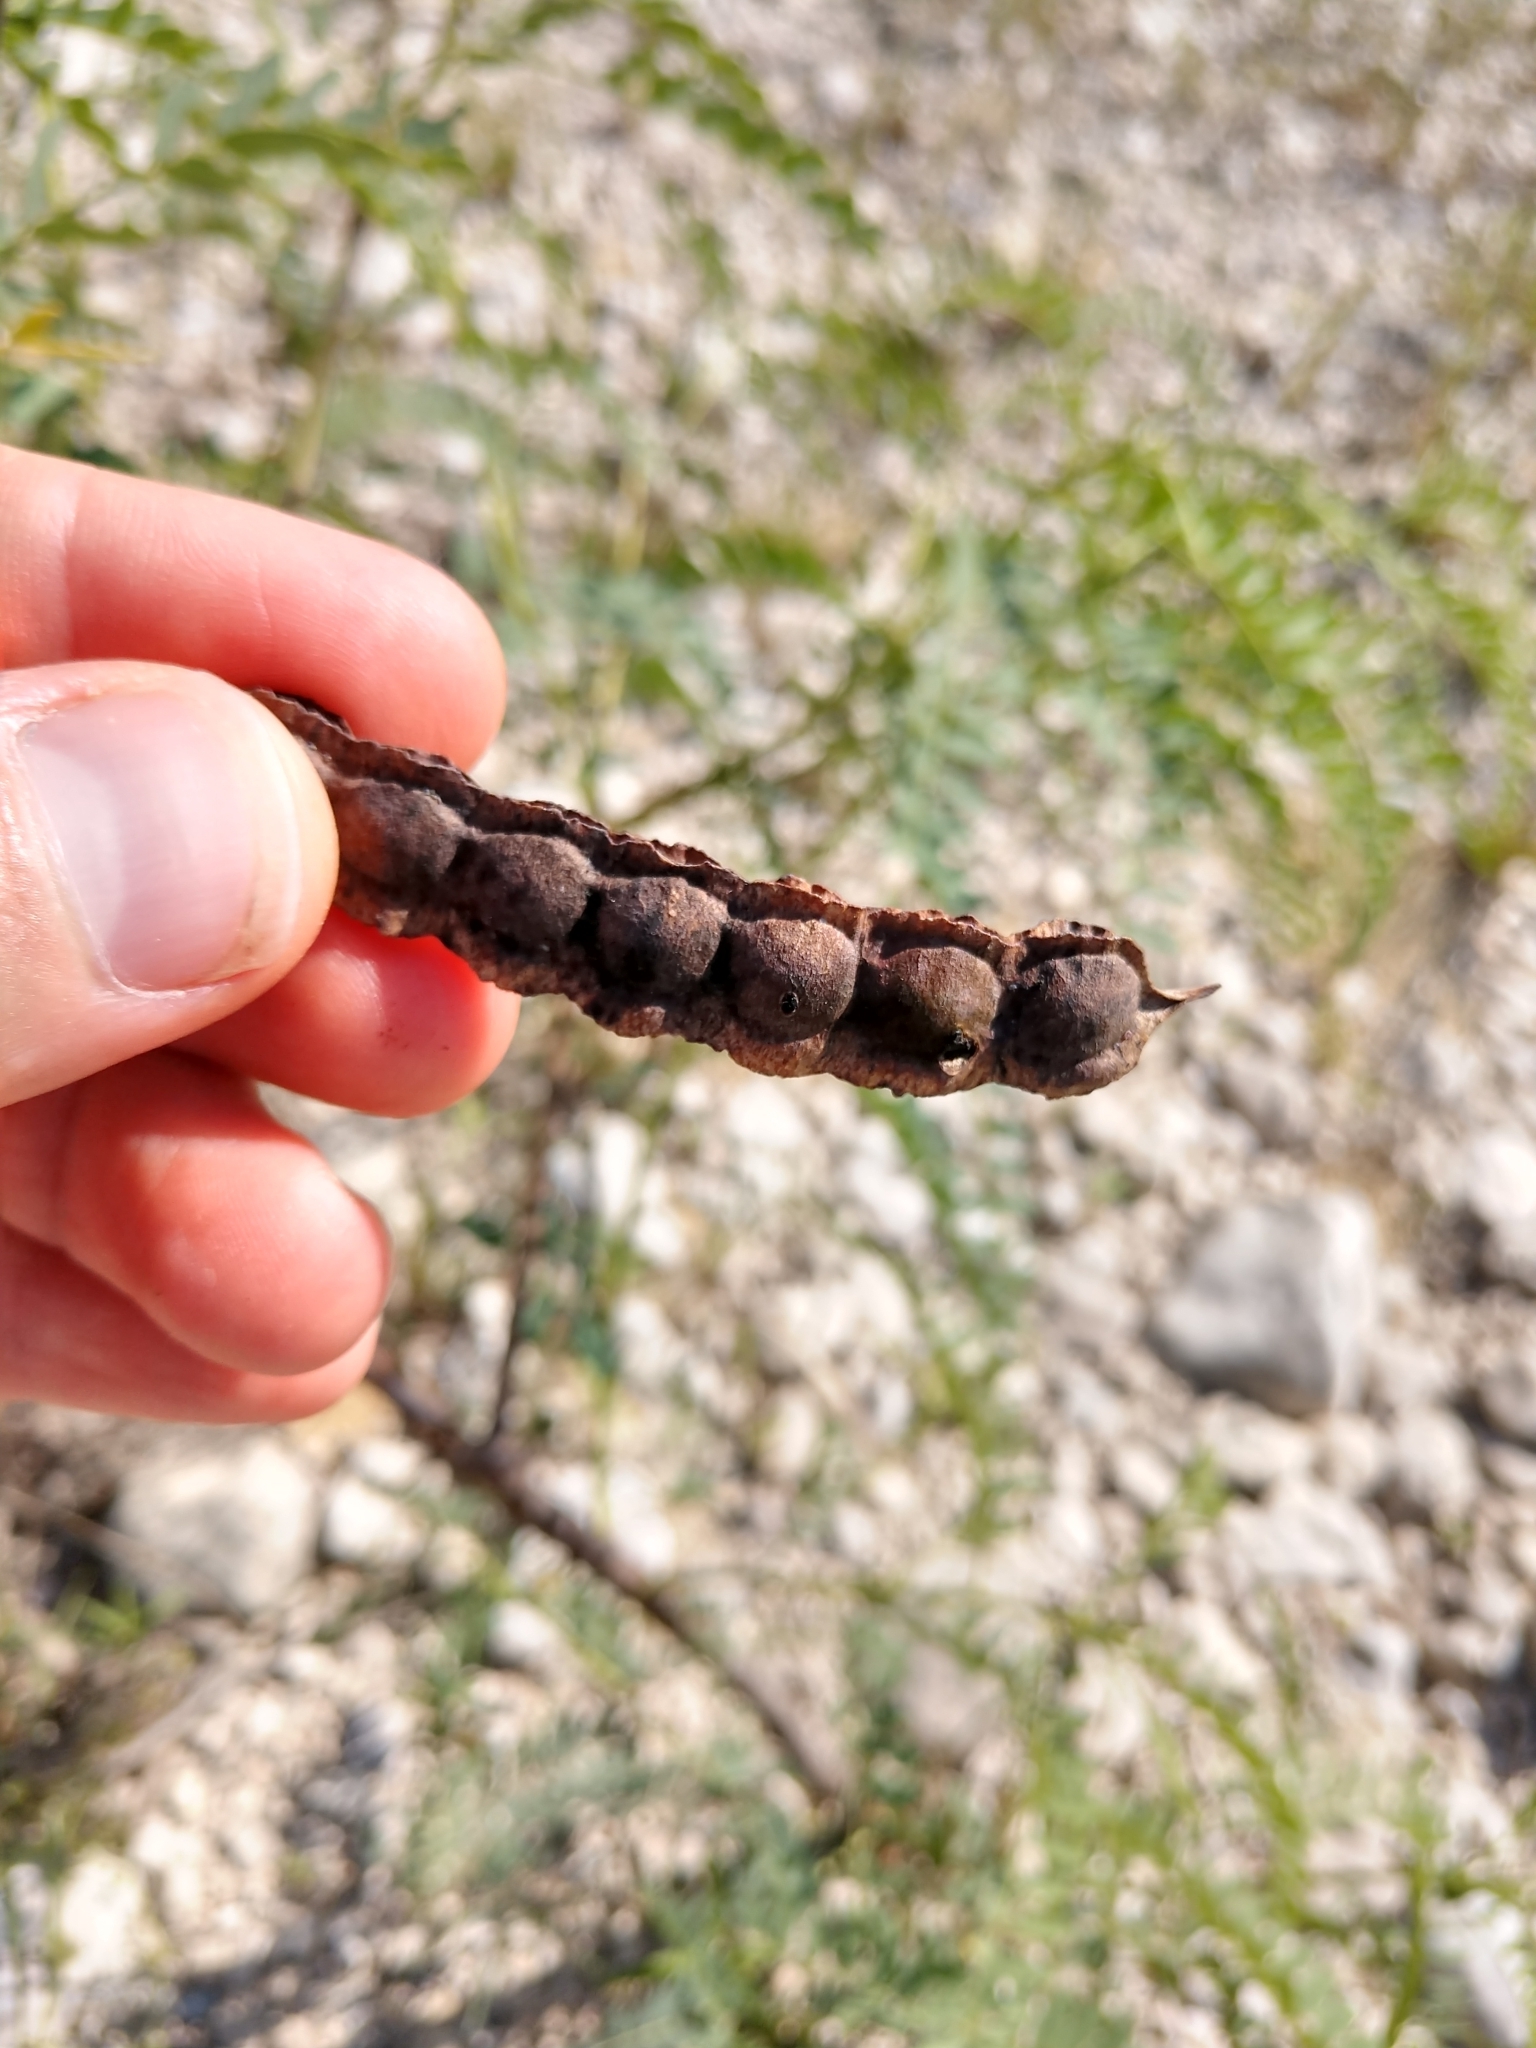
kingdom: Plantae
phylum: Tracheophyta
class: Magnoliopsida
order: Fabales
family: Fabaceae
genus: Sesbania
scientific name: Sesbania drummondii
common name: Poison-bean
